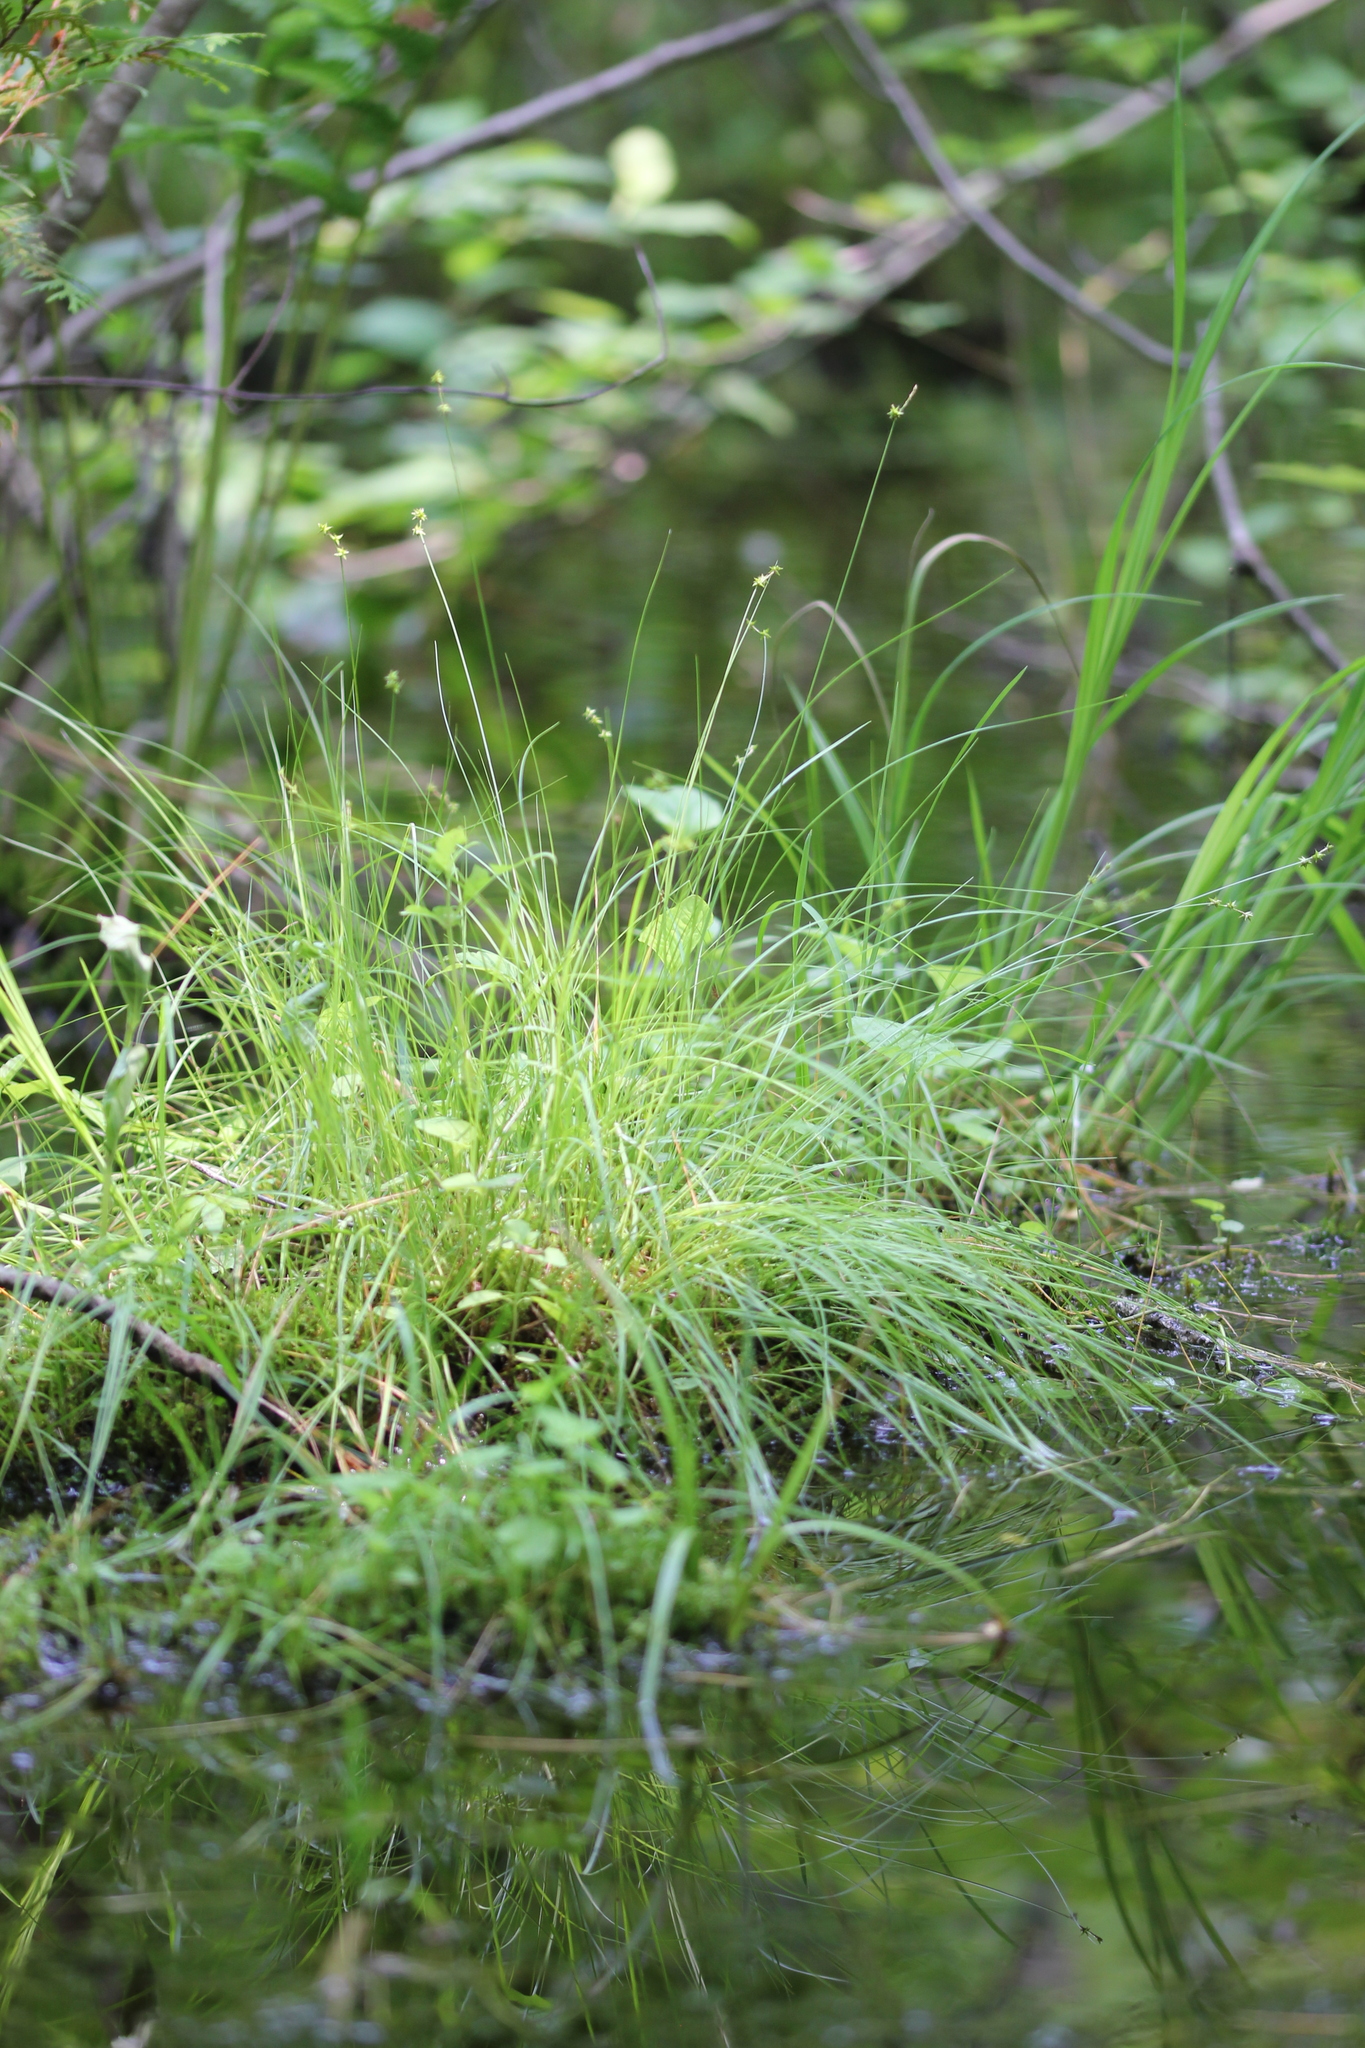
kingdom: Plantae
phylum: Tracheophyta
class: Liliopsida
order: Poales
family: Cyperaceae
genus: Carex
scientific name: Carex interior
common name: Inland sedge
